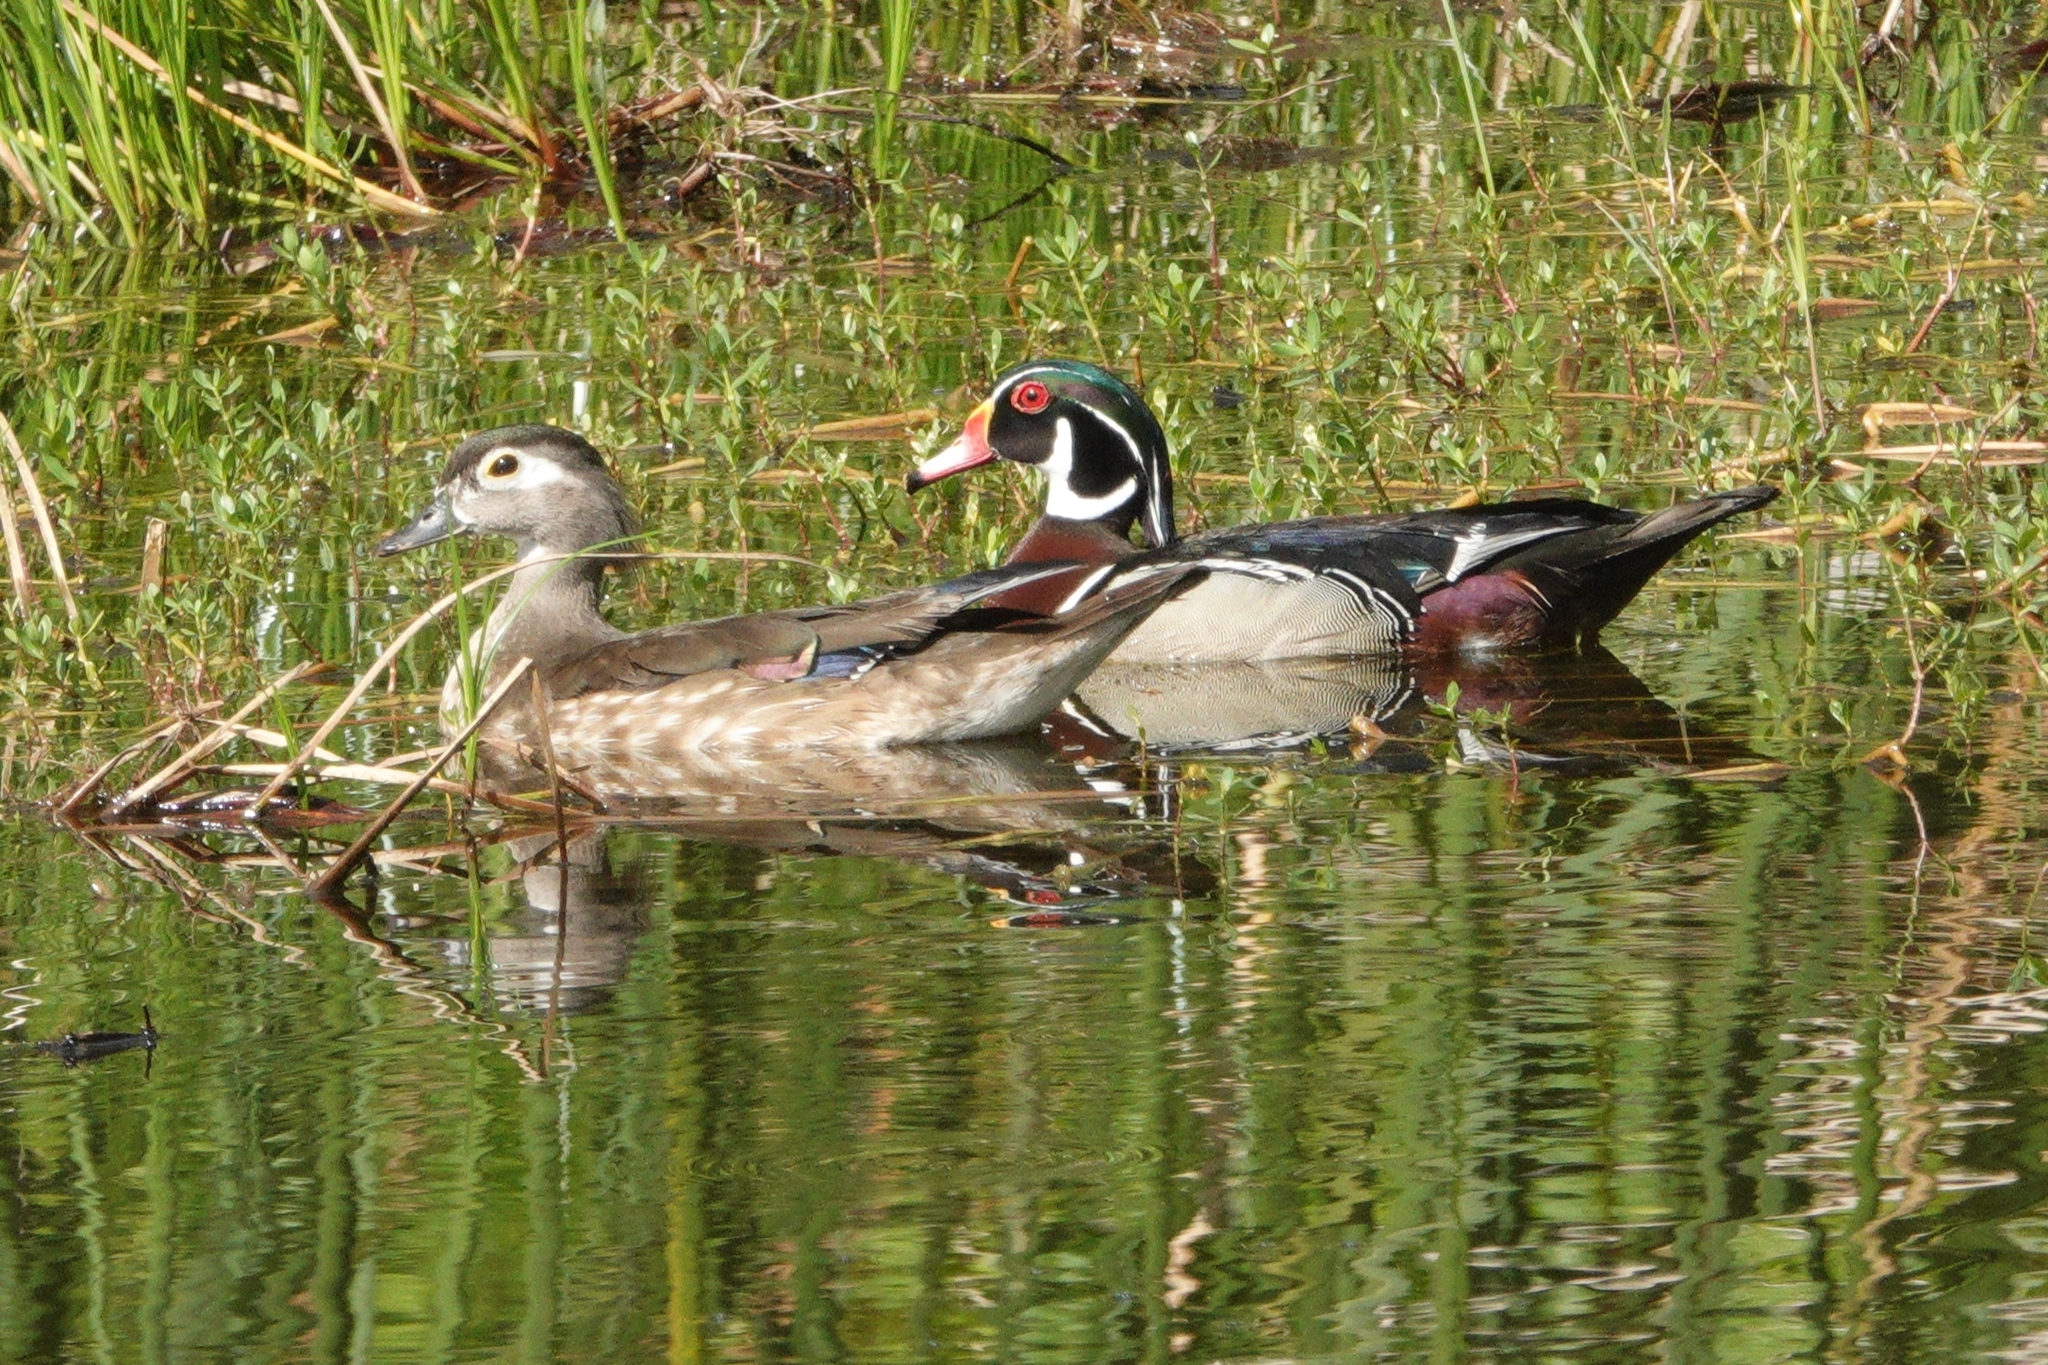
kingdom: Animalia
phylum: Chordata
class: Aves
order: Anseriformes
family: Anatidae
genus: Aix
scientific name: Aix sponsa
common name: Wood duck
